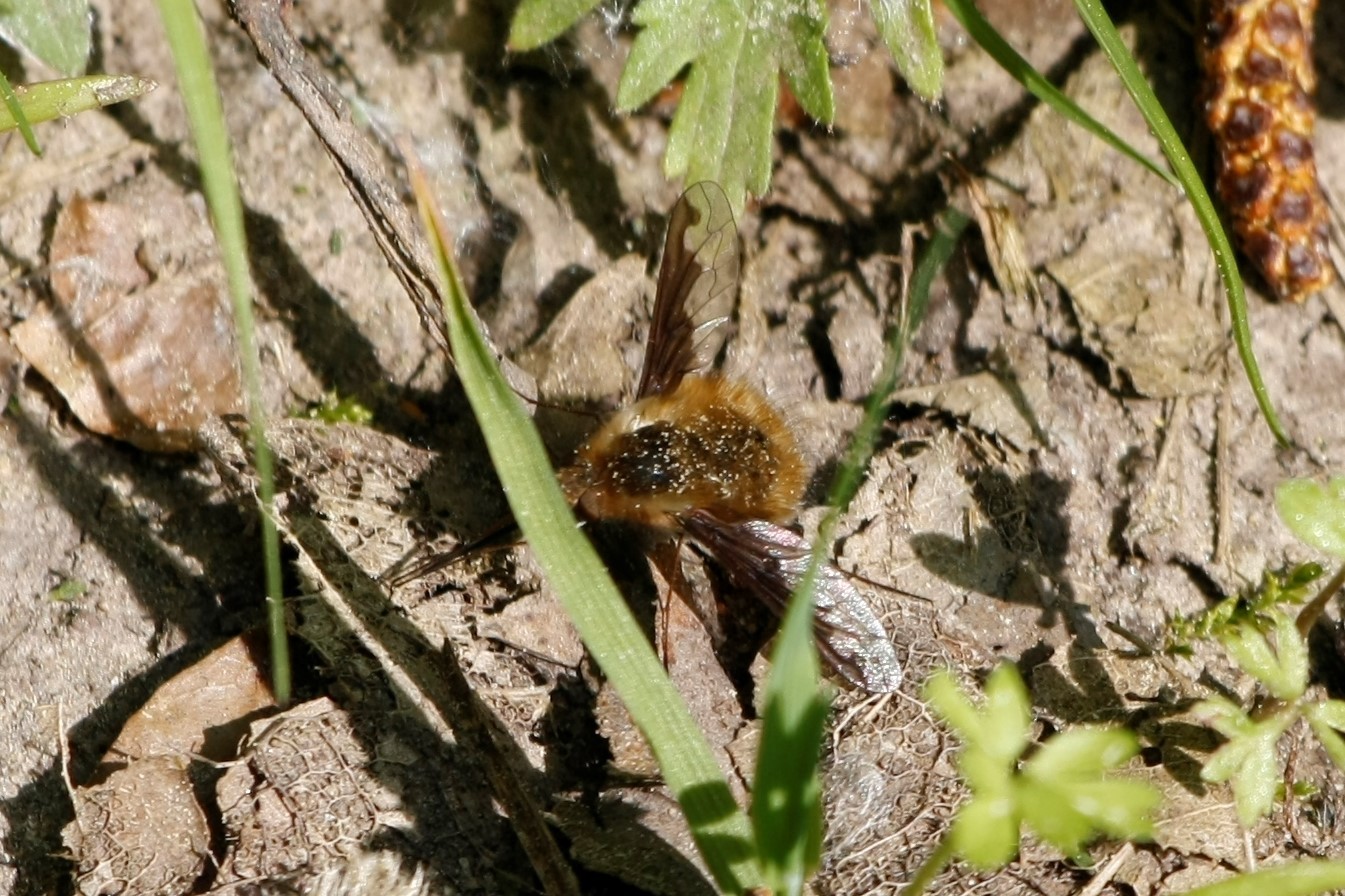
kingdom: Animalia
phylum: Arthropoda
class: Insecta
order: Diptera
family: Bombyliidae
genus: Bombylius
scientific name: Bombylius major
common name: Bee fly
